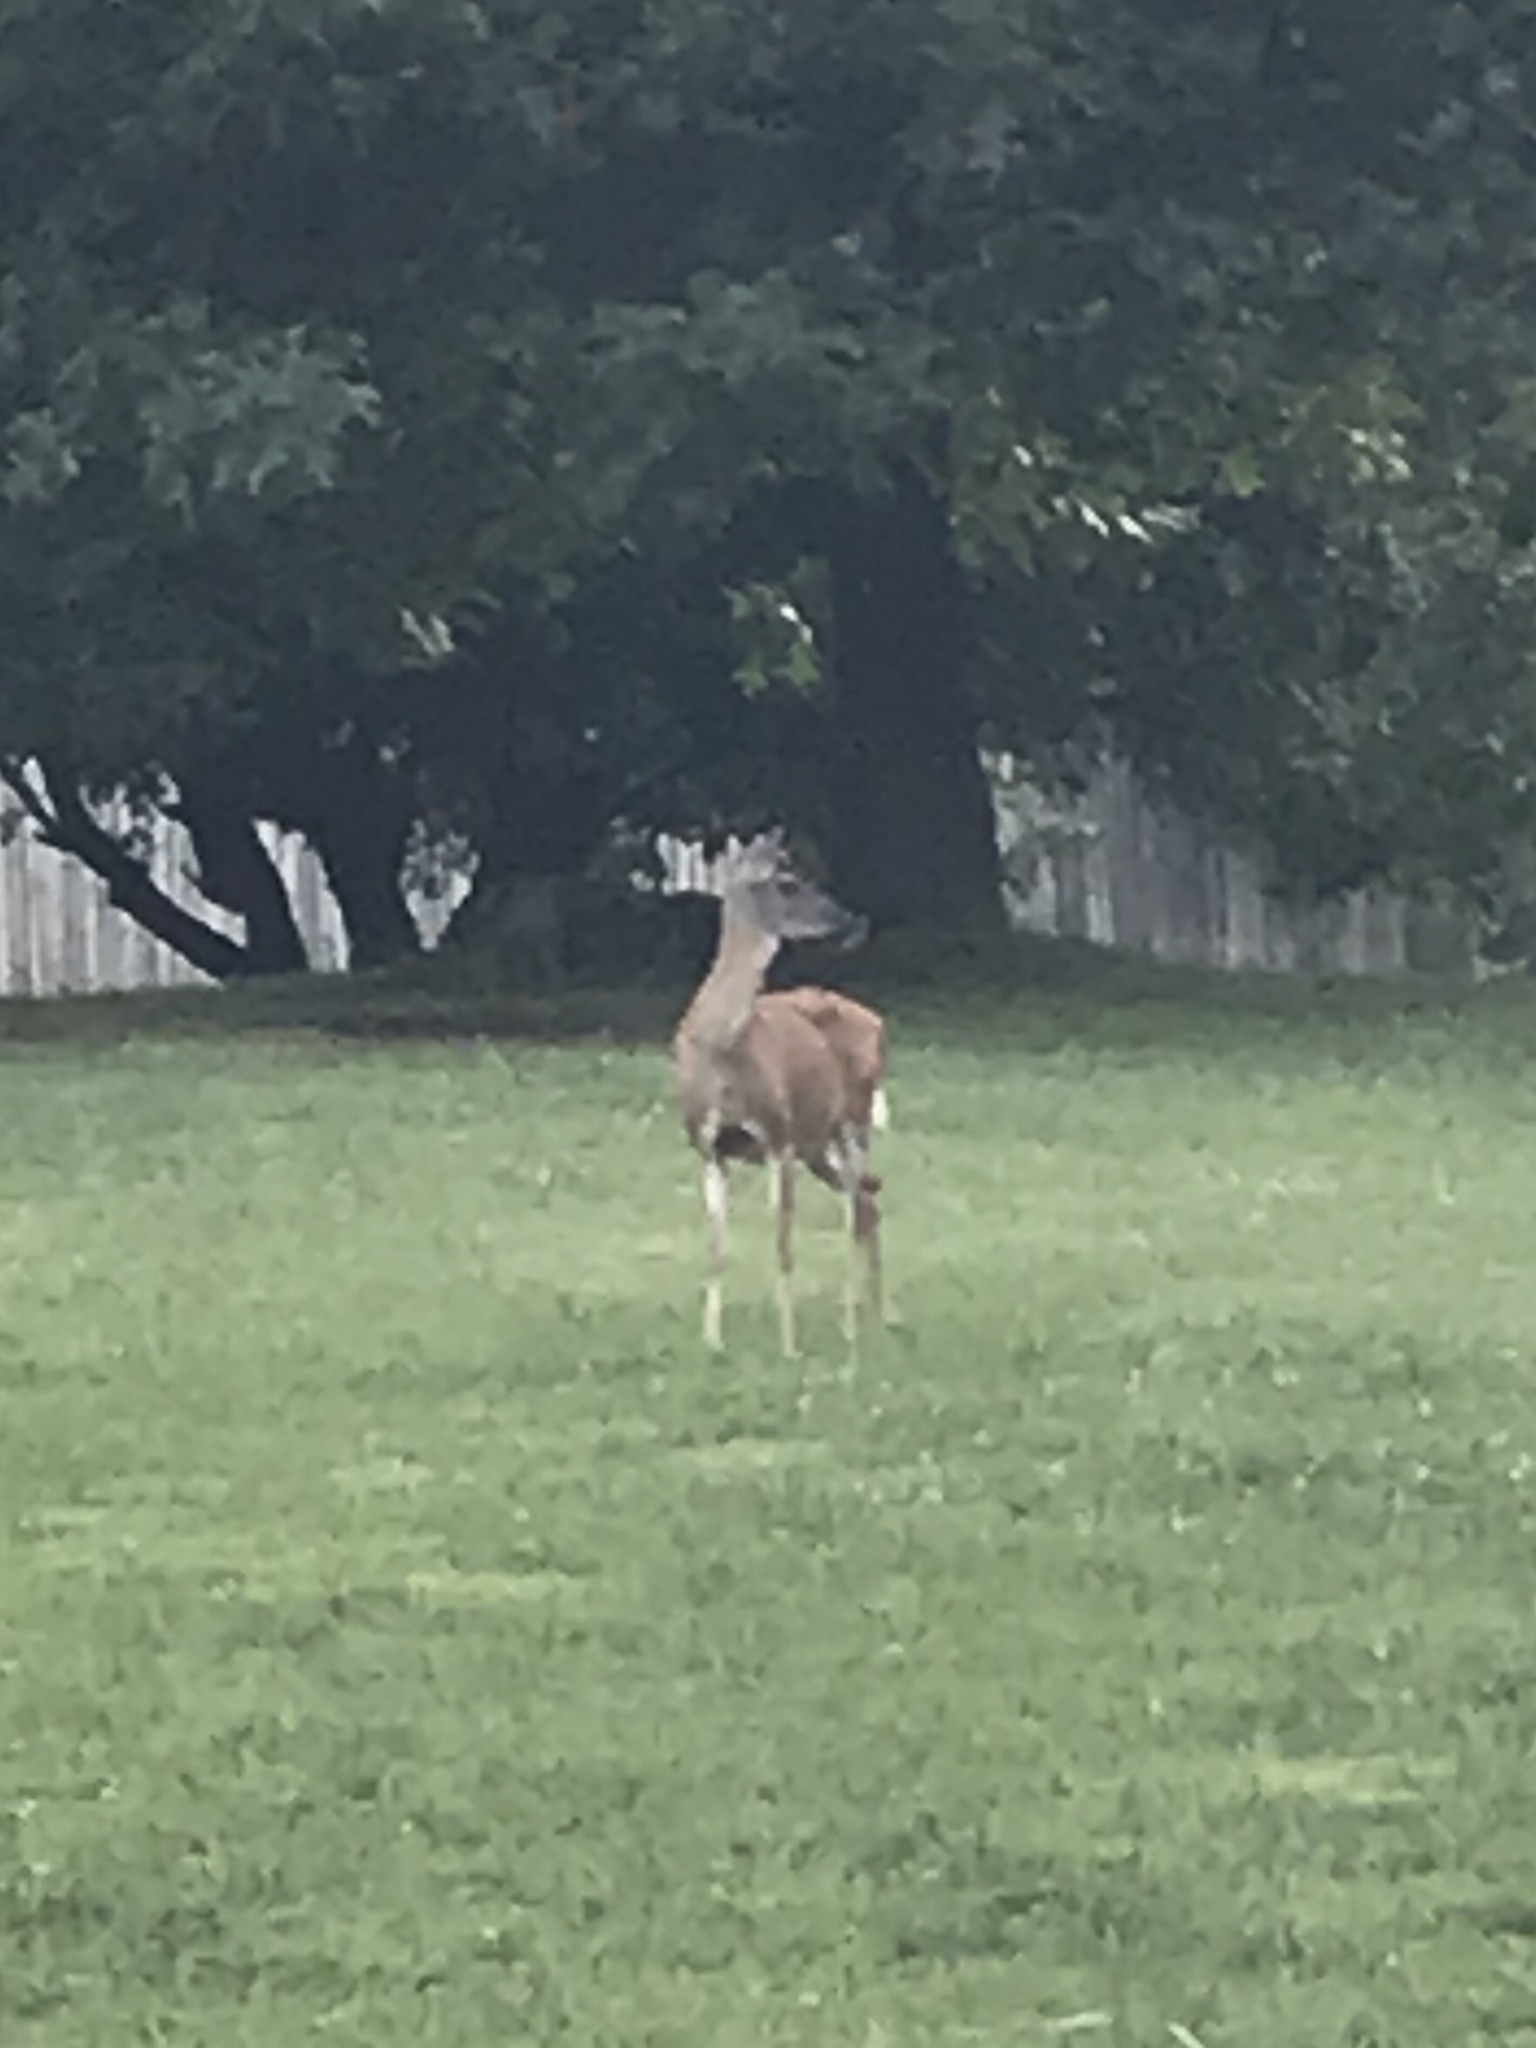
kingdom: Animalia
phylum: Chordata
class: Mammalia
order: Artiodactyla
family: Cervidae
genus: Odocoileus
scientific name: Odocoileus virginianus
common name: White-tailed deer
